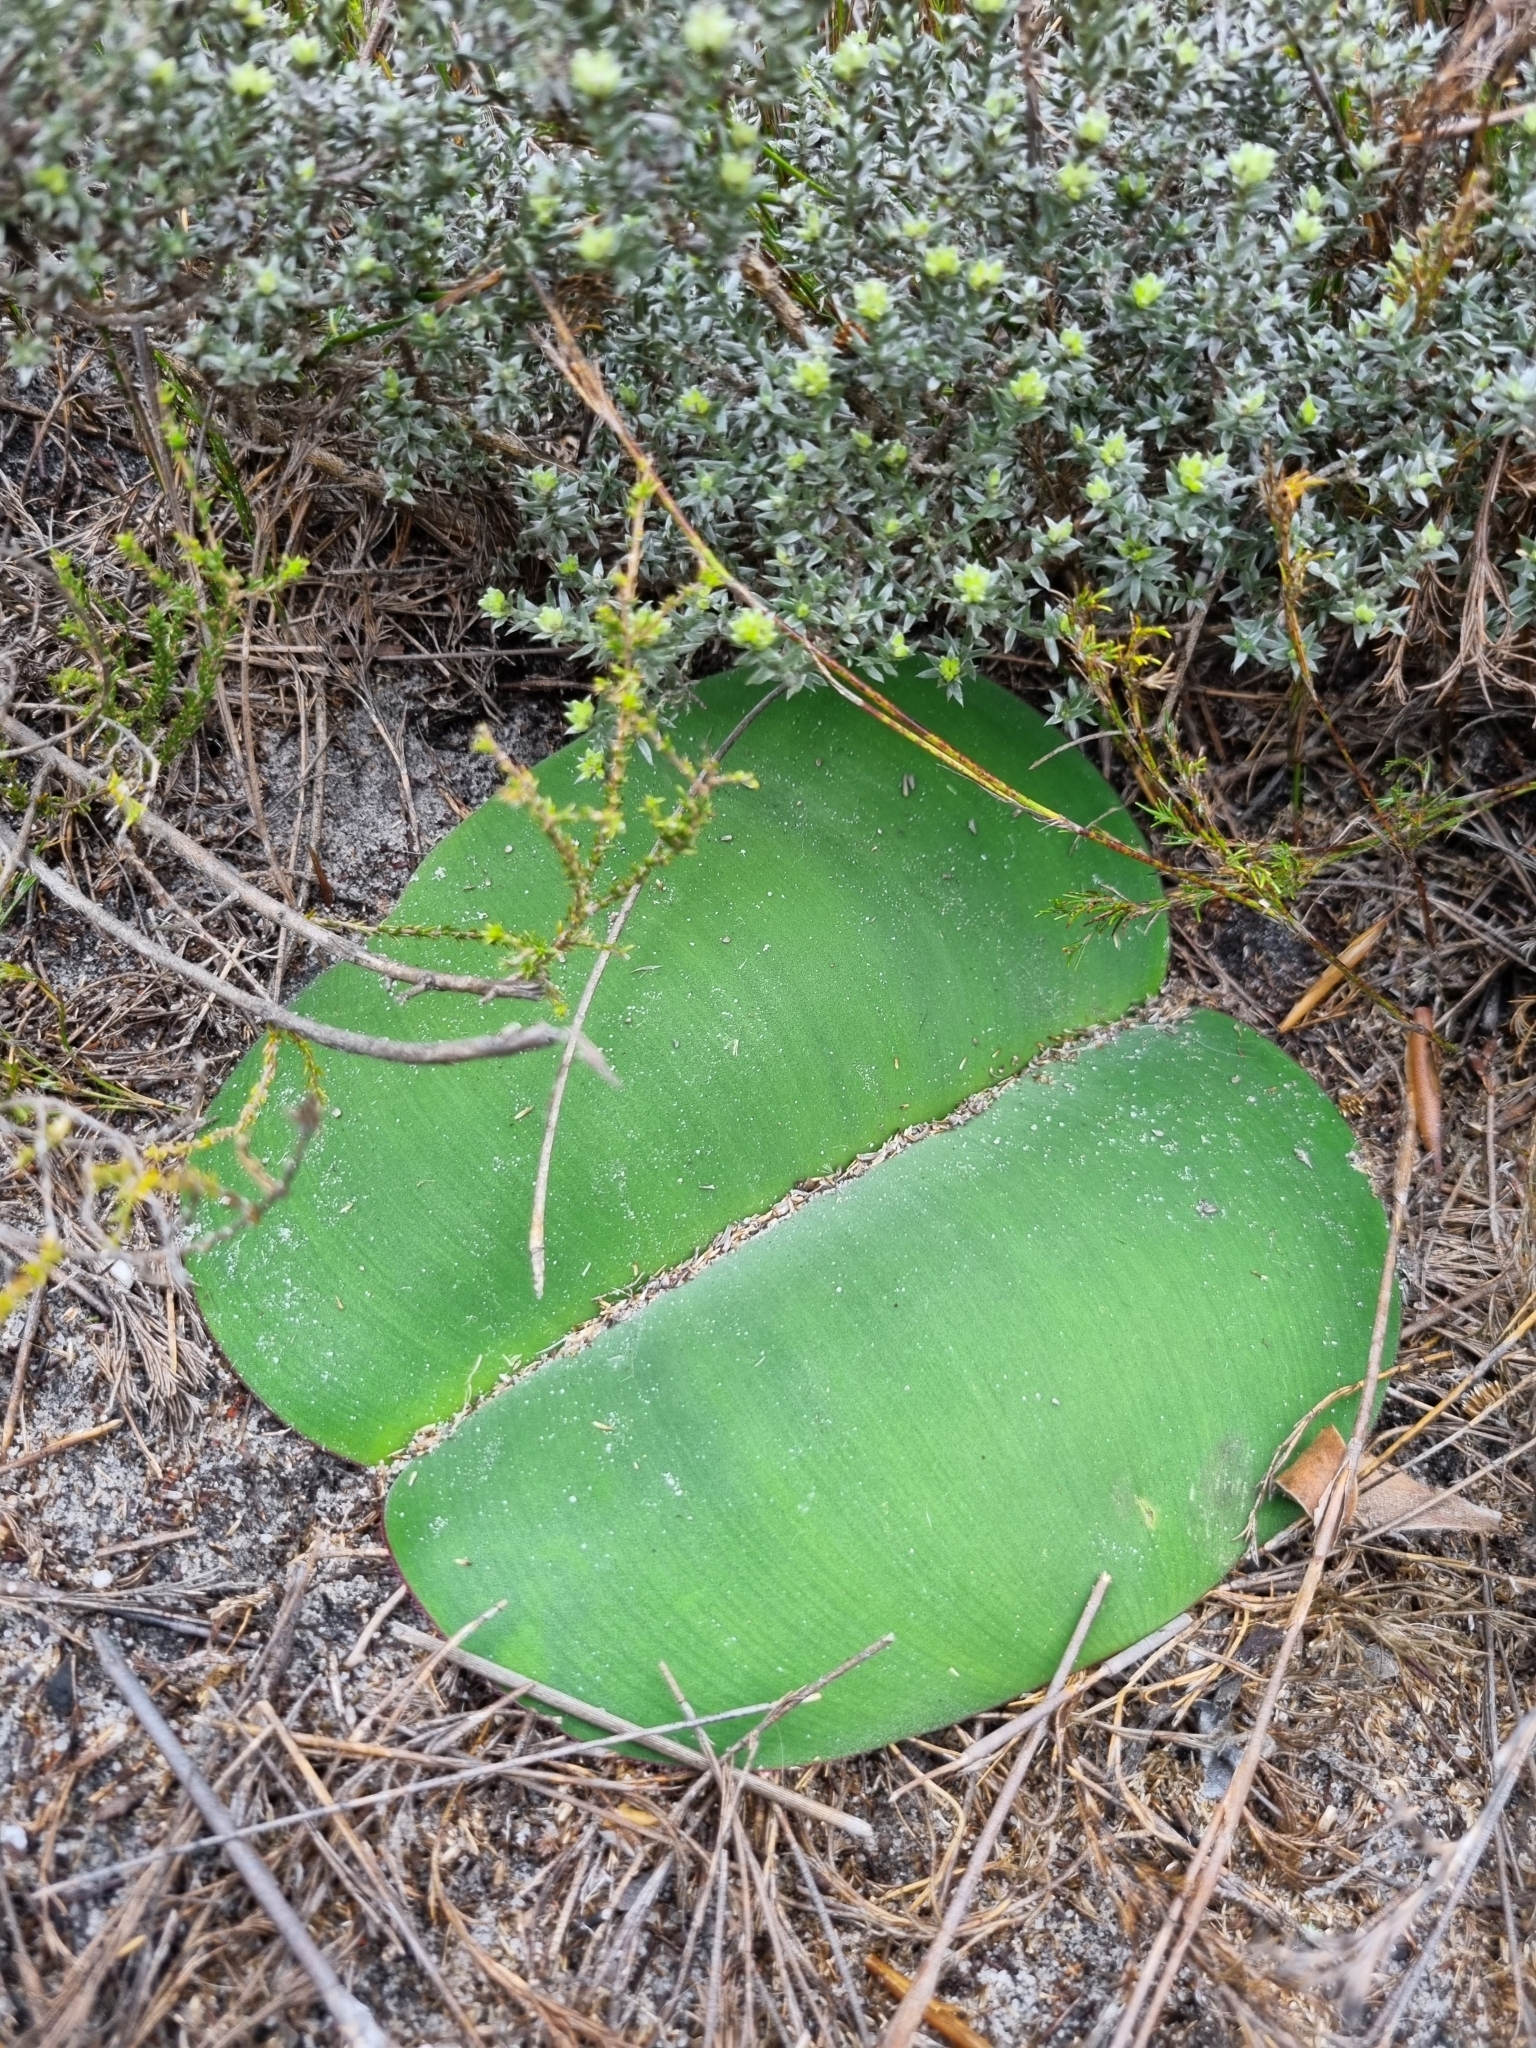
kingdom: Plantae
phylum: Tracheophyta
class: Liliopsida
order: Asparagales
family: Amaryllidaceae
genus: Haemanthus
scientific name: Haemanthus sanguineus
